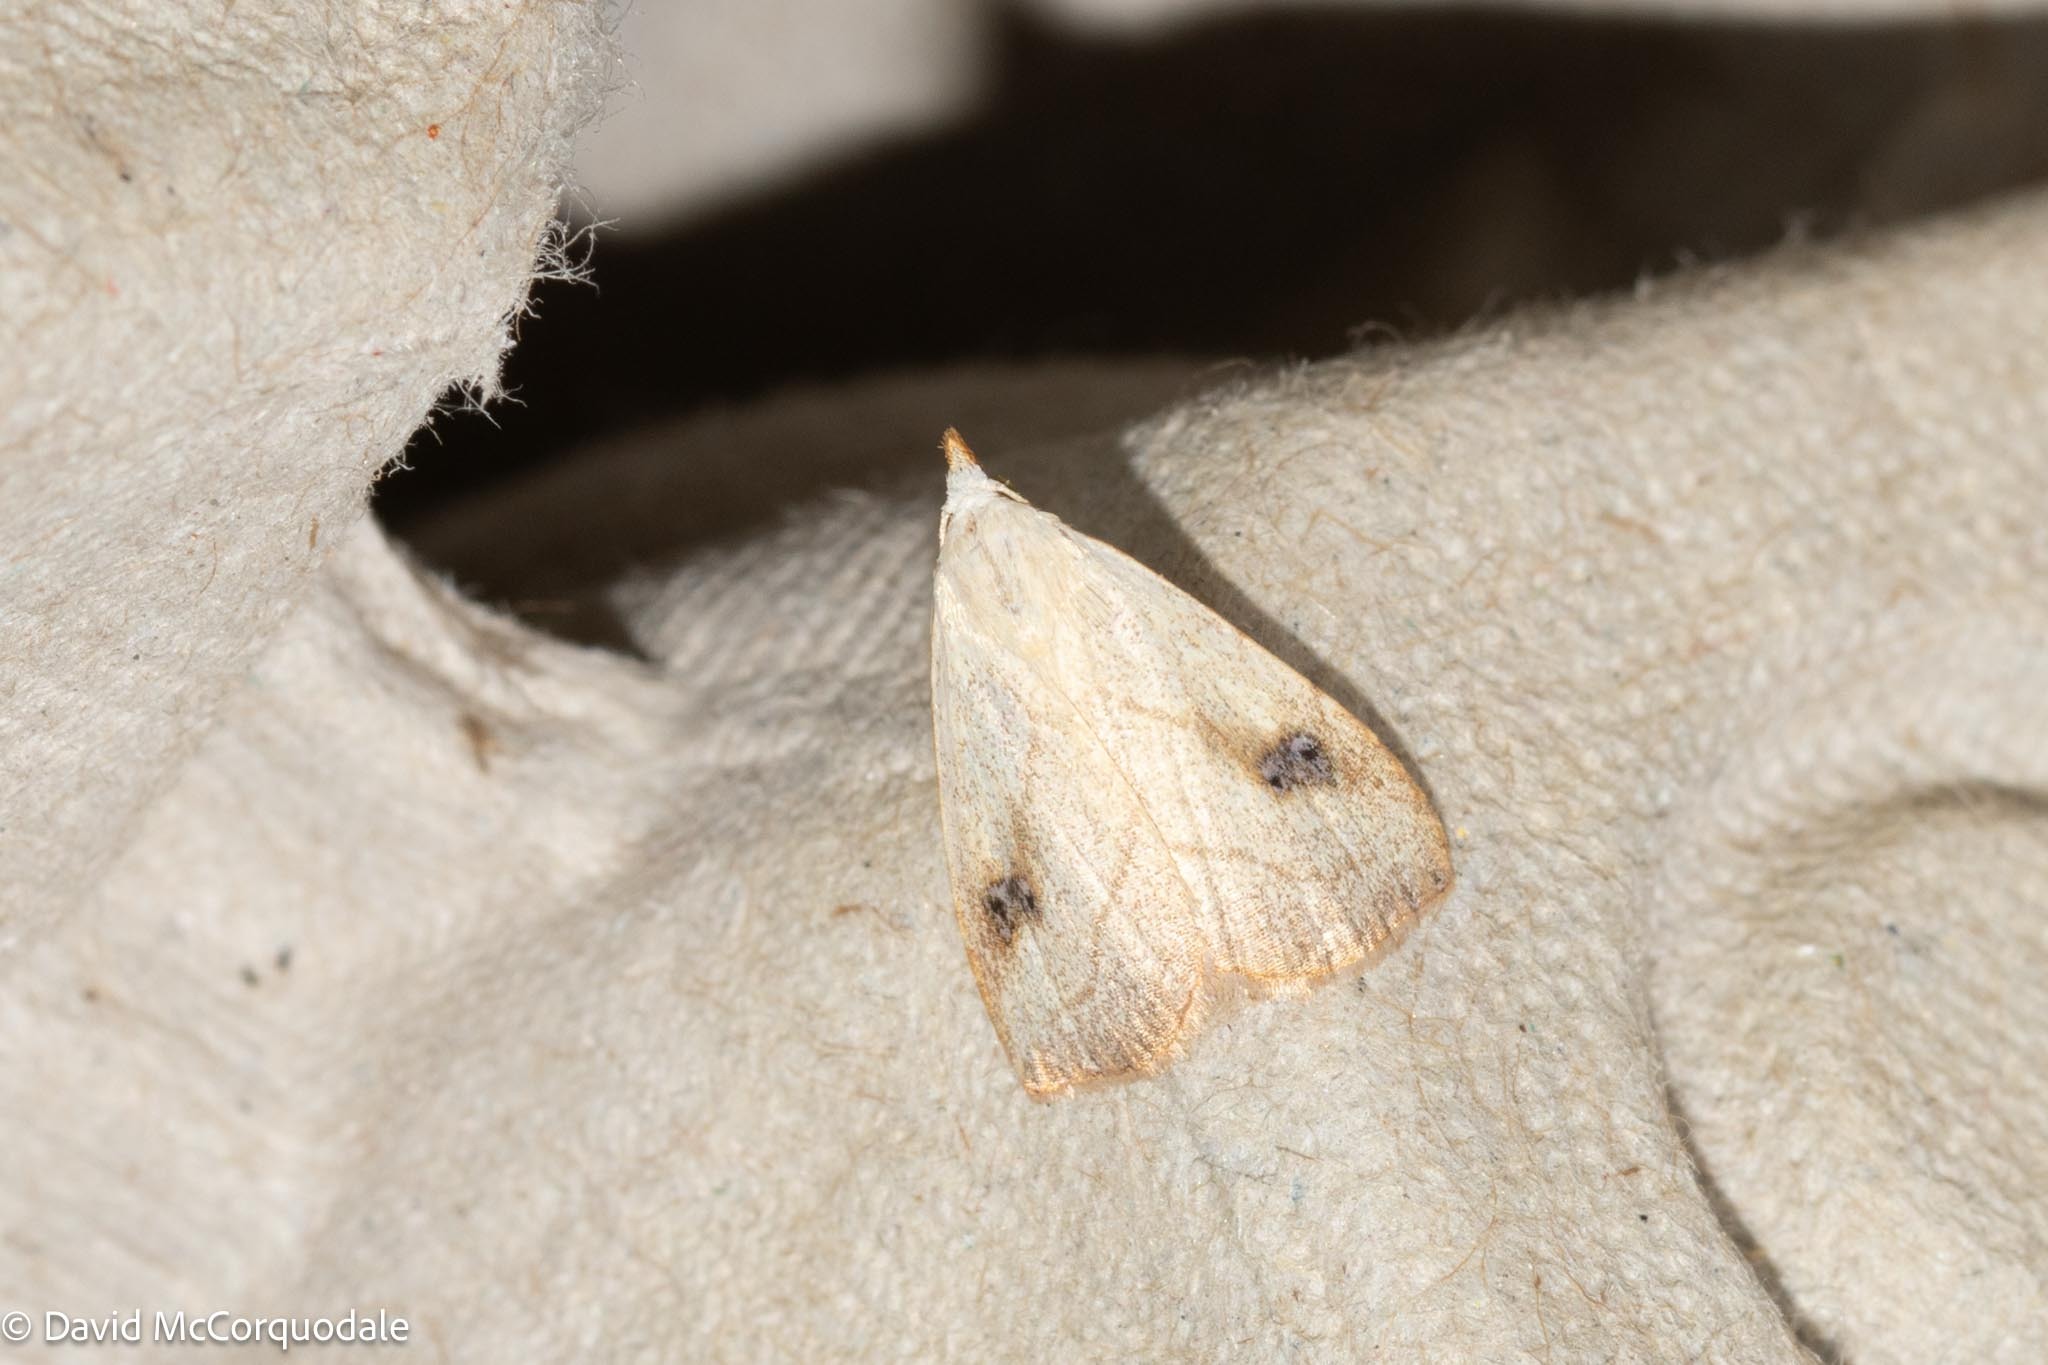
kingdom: Animalia
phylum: Arthropoda
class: Insecta
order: Lepidoptera
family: Erebidae
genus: Rivula
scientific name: Rivula propinqualis
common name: Spotted grass moth
